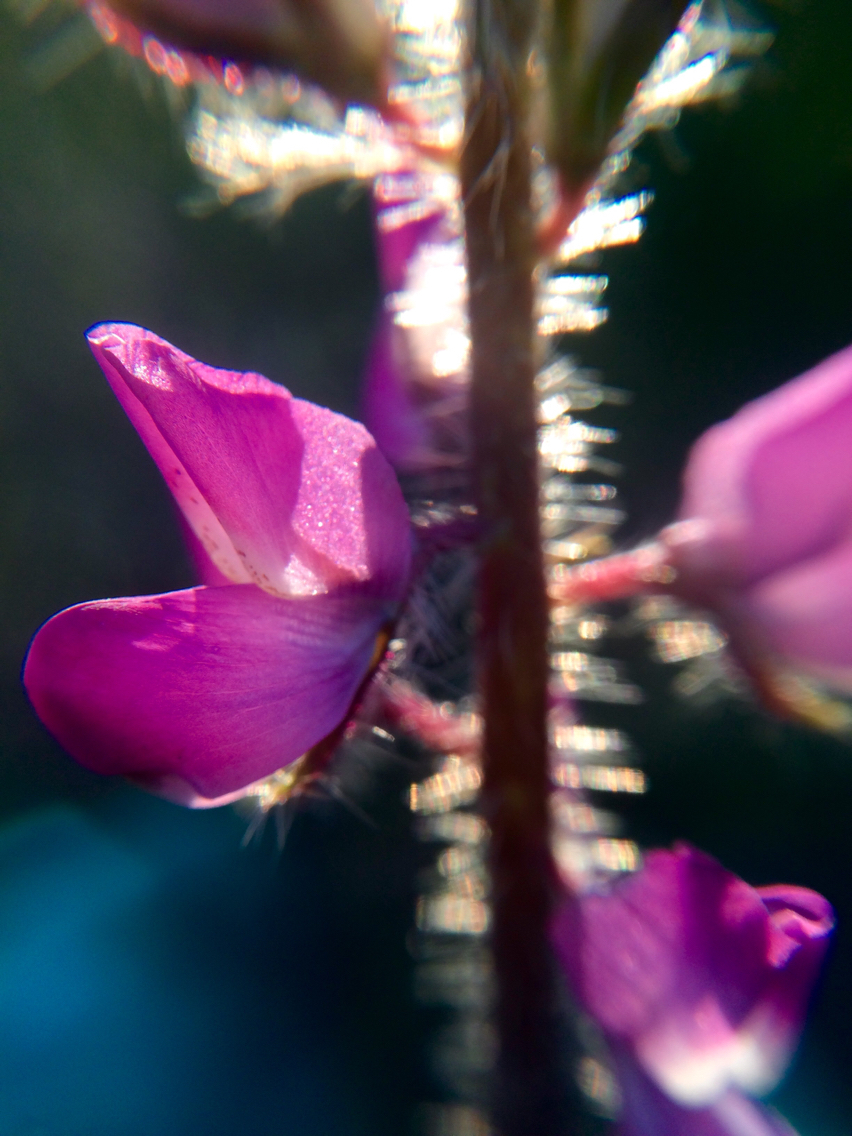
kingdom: Plantae
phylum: Tracheophyta
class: Magnoliopsida
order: Fabales
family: Fabaceae
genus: Lupinus
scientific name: Lupinus hirsutissimus
